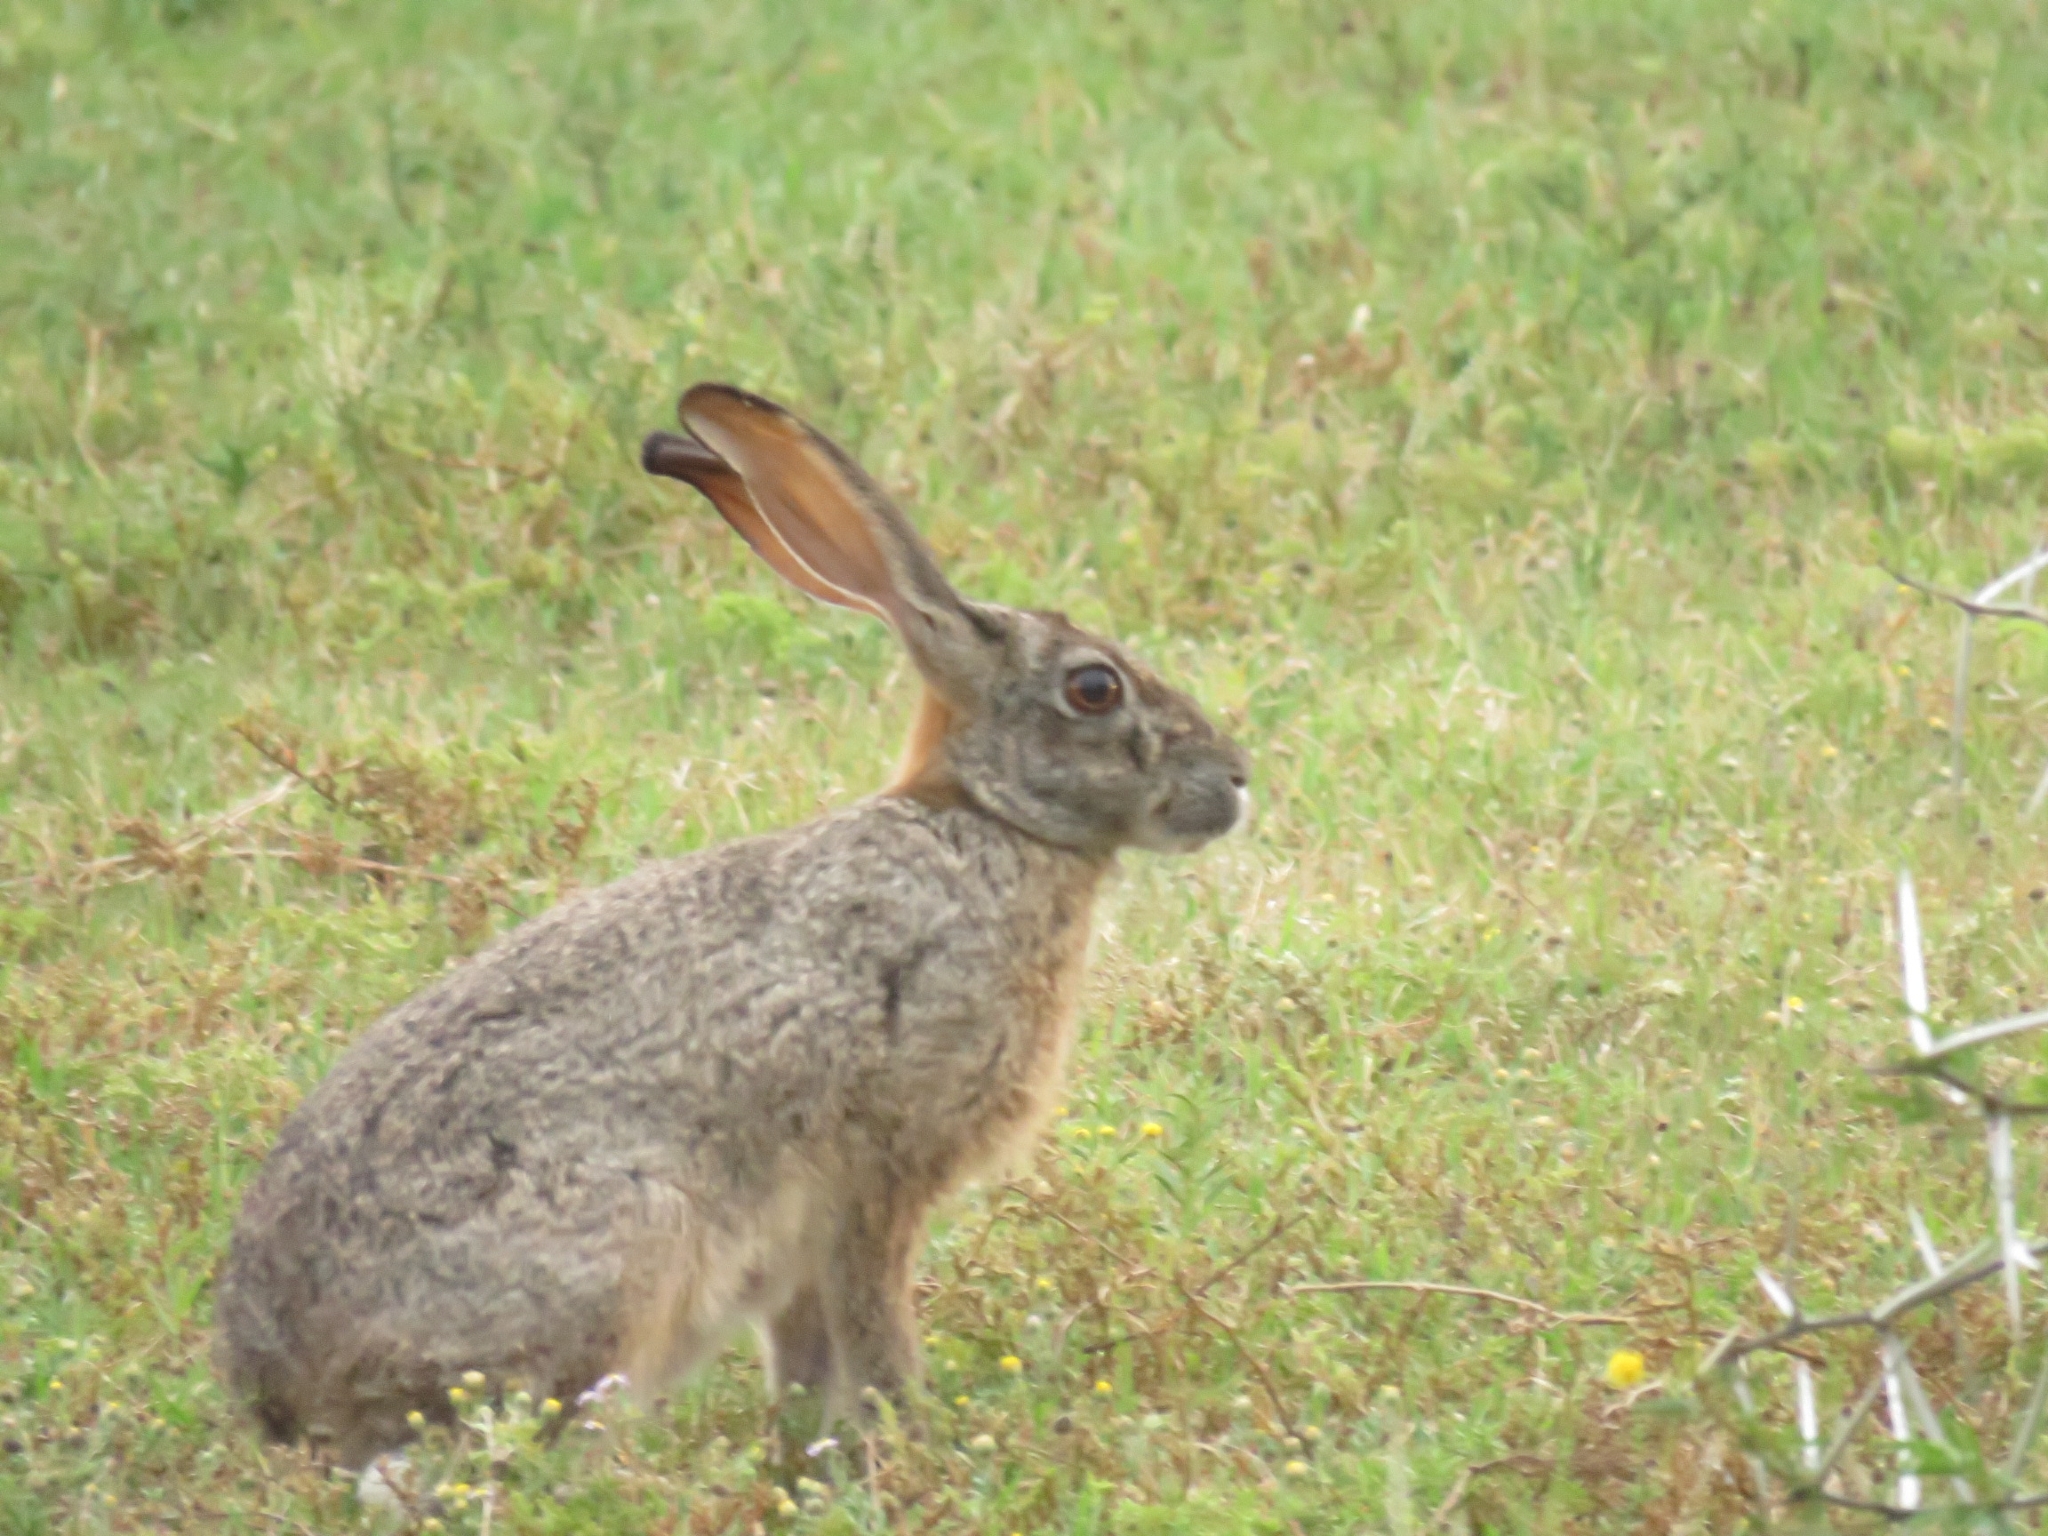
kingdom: Animalia
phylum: Chordata
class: Mammalia
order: Lagomorpha
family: Leporidae
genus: Lepus
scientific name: Lepus saxatilis
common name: Scrub hare
